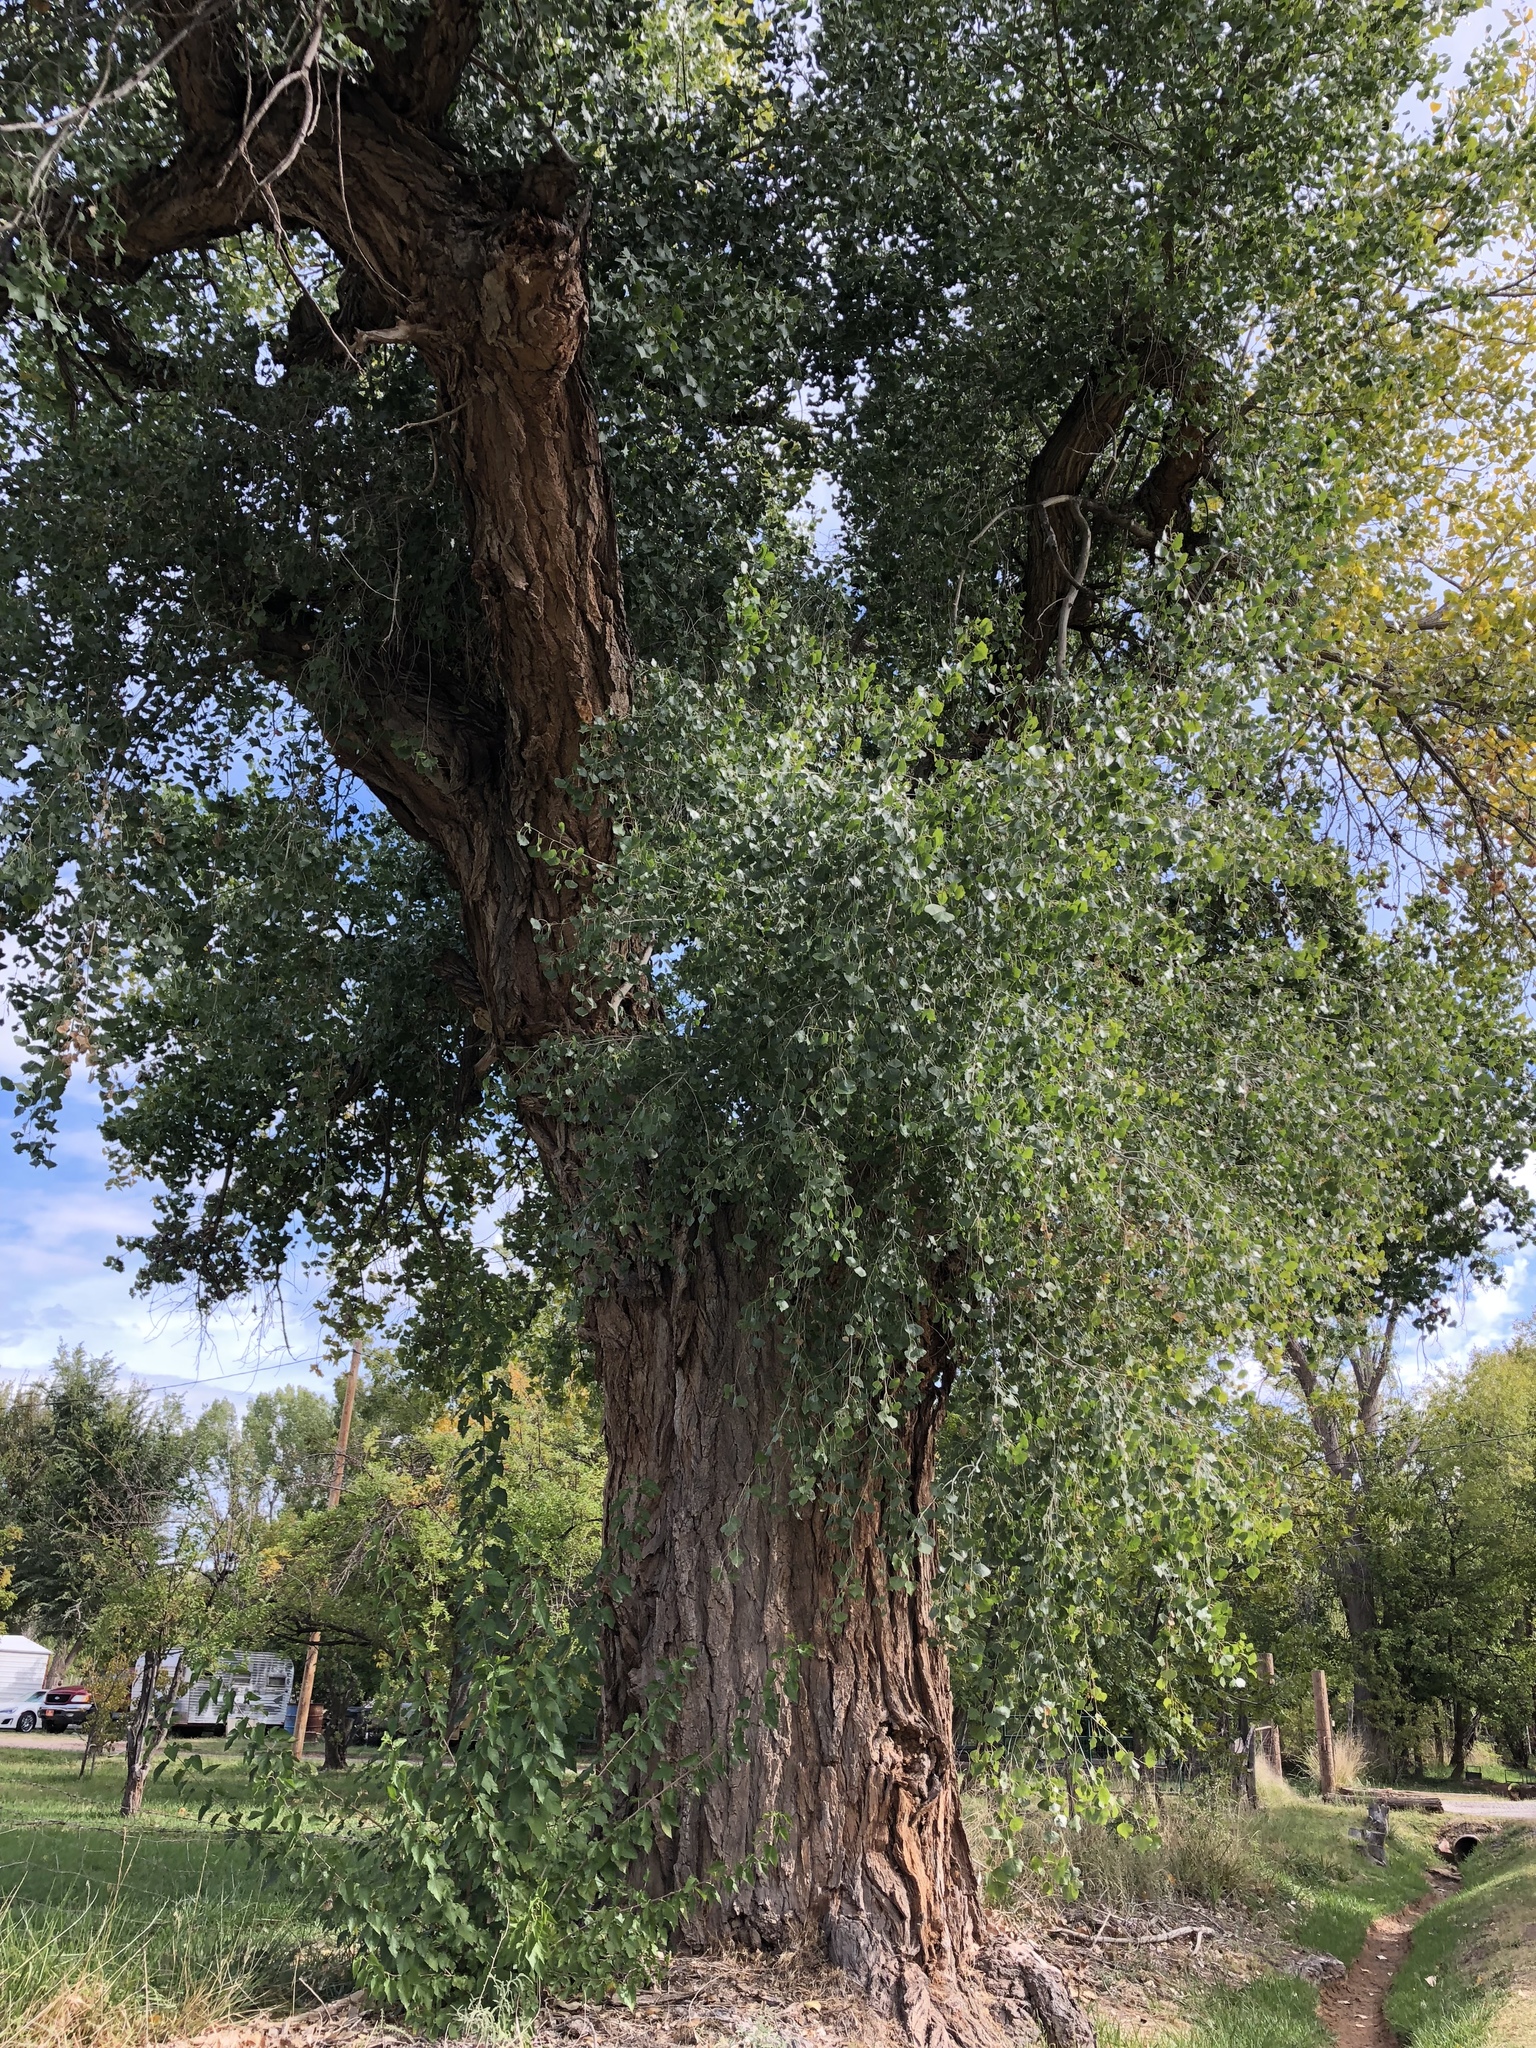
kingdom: Plantae
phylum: Tracheophyta
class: Magnoliopsida
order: Malpighiales
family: Salicaceae
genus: Populus
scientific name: Populus fremontii
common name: Fremont's cottonwood
